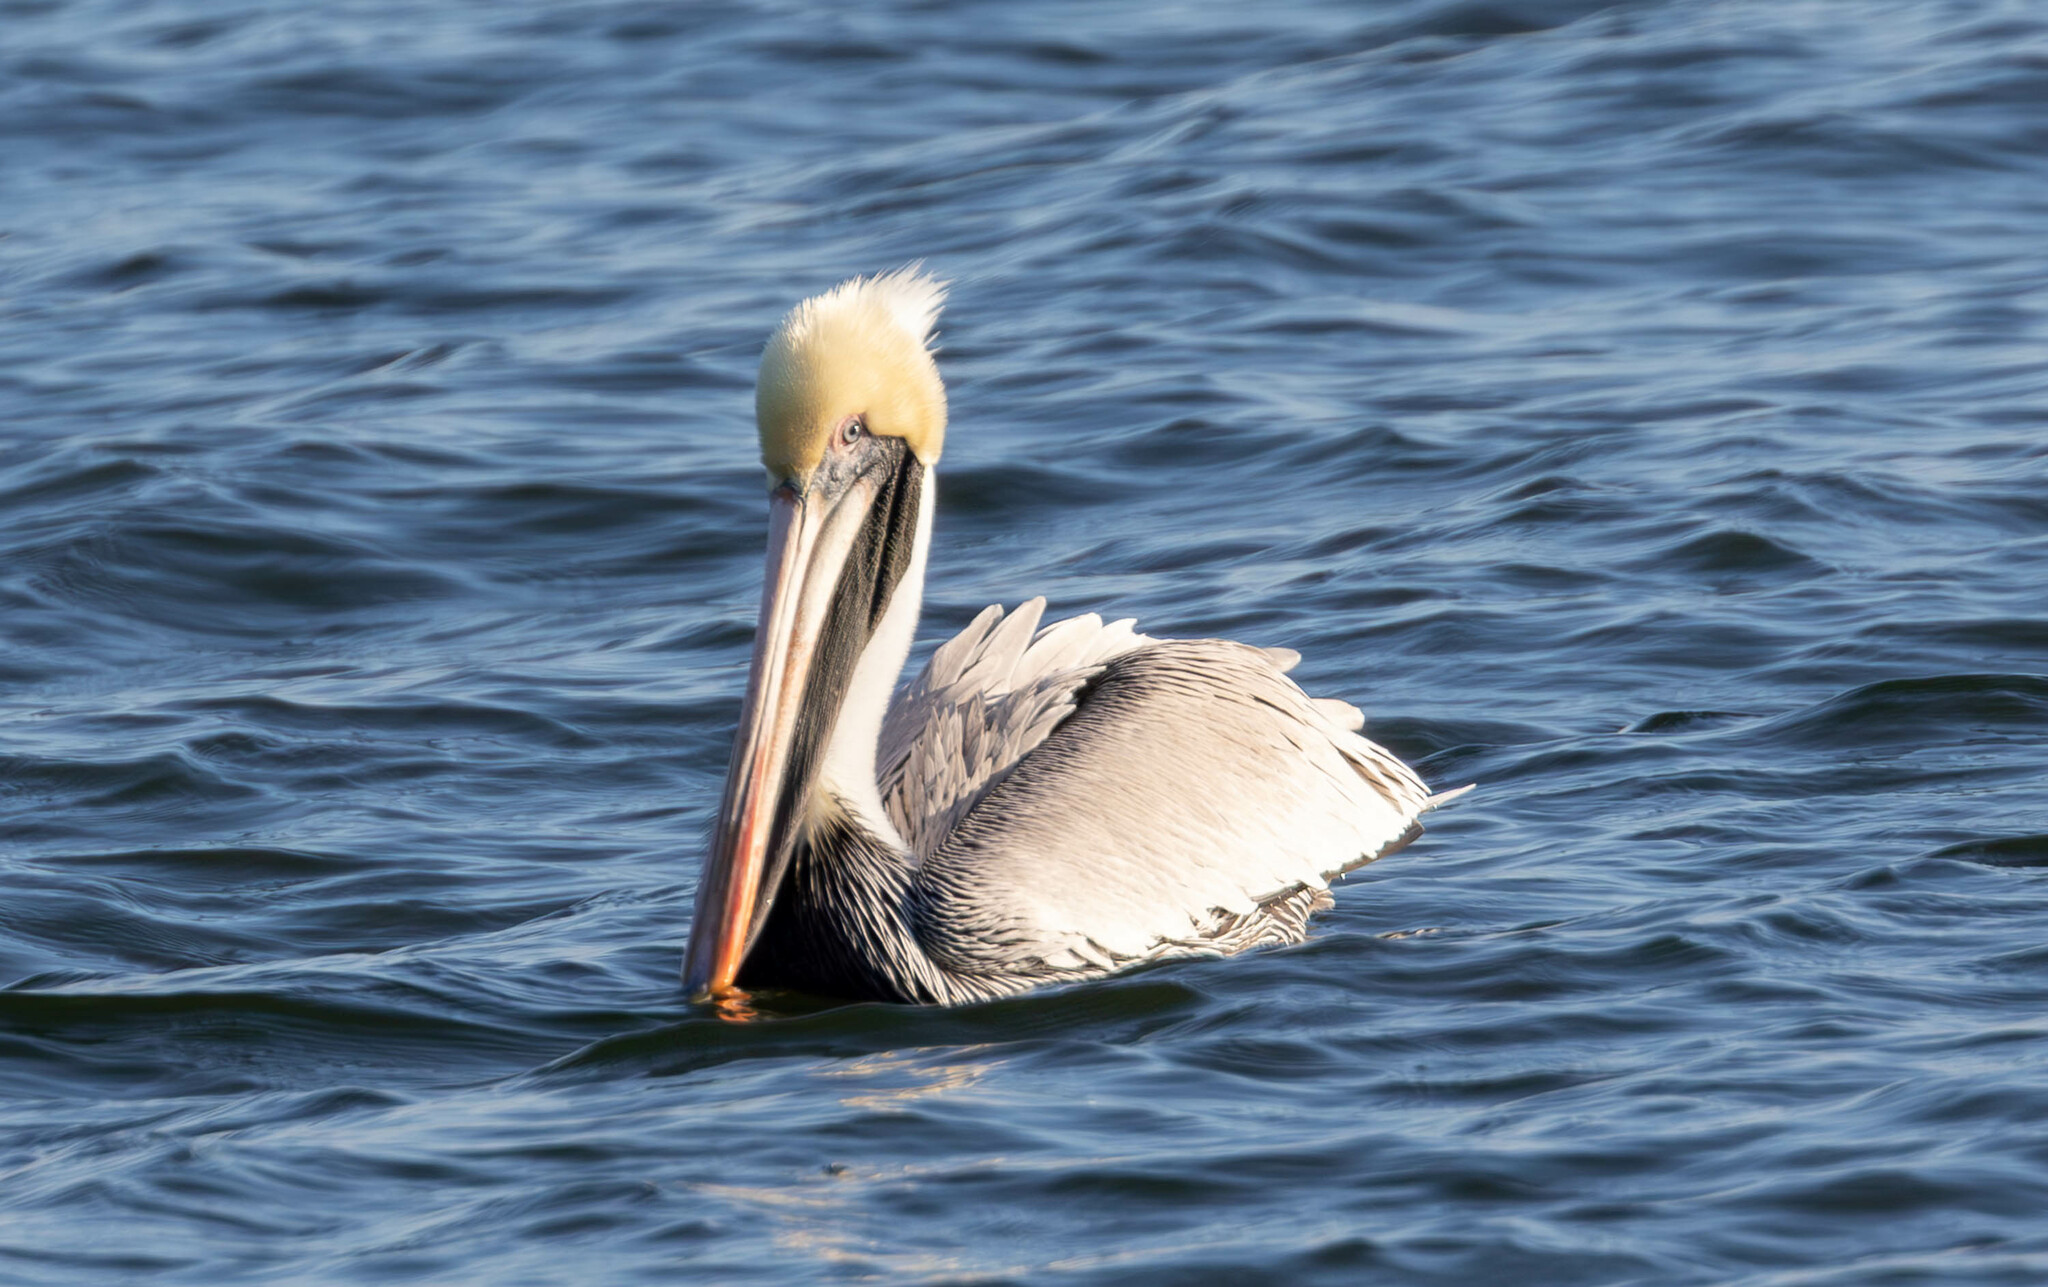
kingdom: Animalia
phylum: Chordata
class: Aves
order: Pelecaniformes
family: Pelecanidae
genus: Pelecanus
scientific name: Pelecanus occidentalis
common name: Brown pelican
